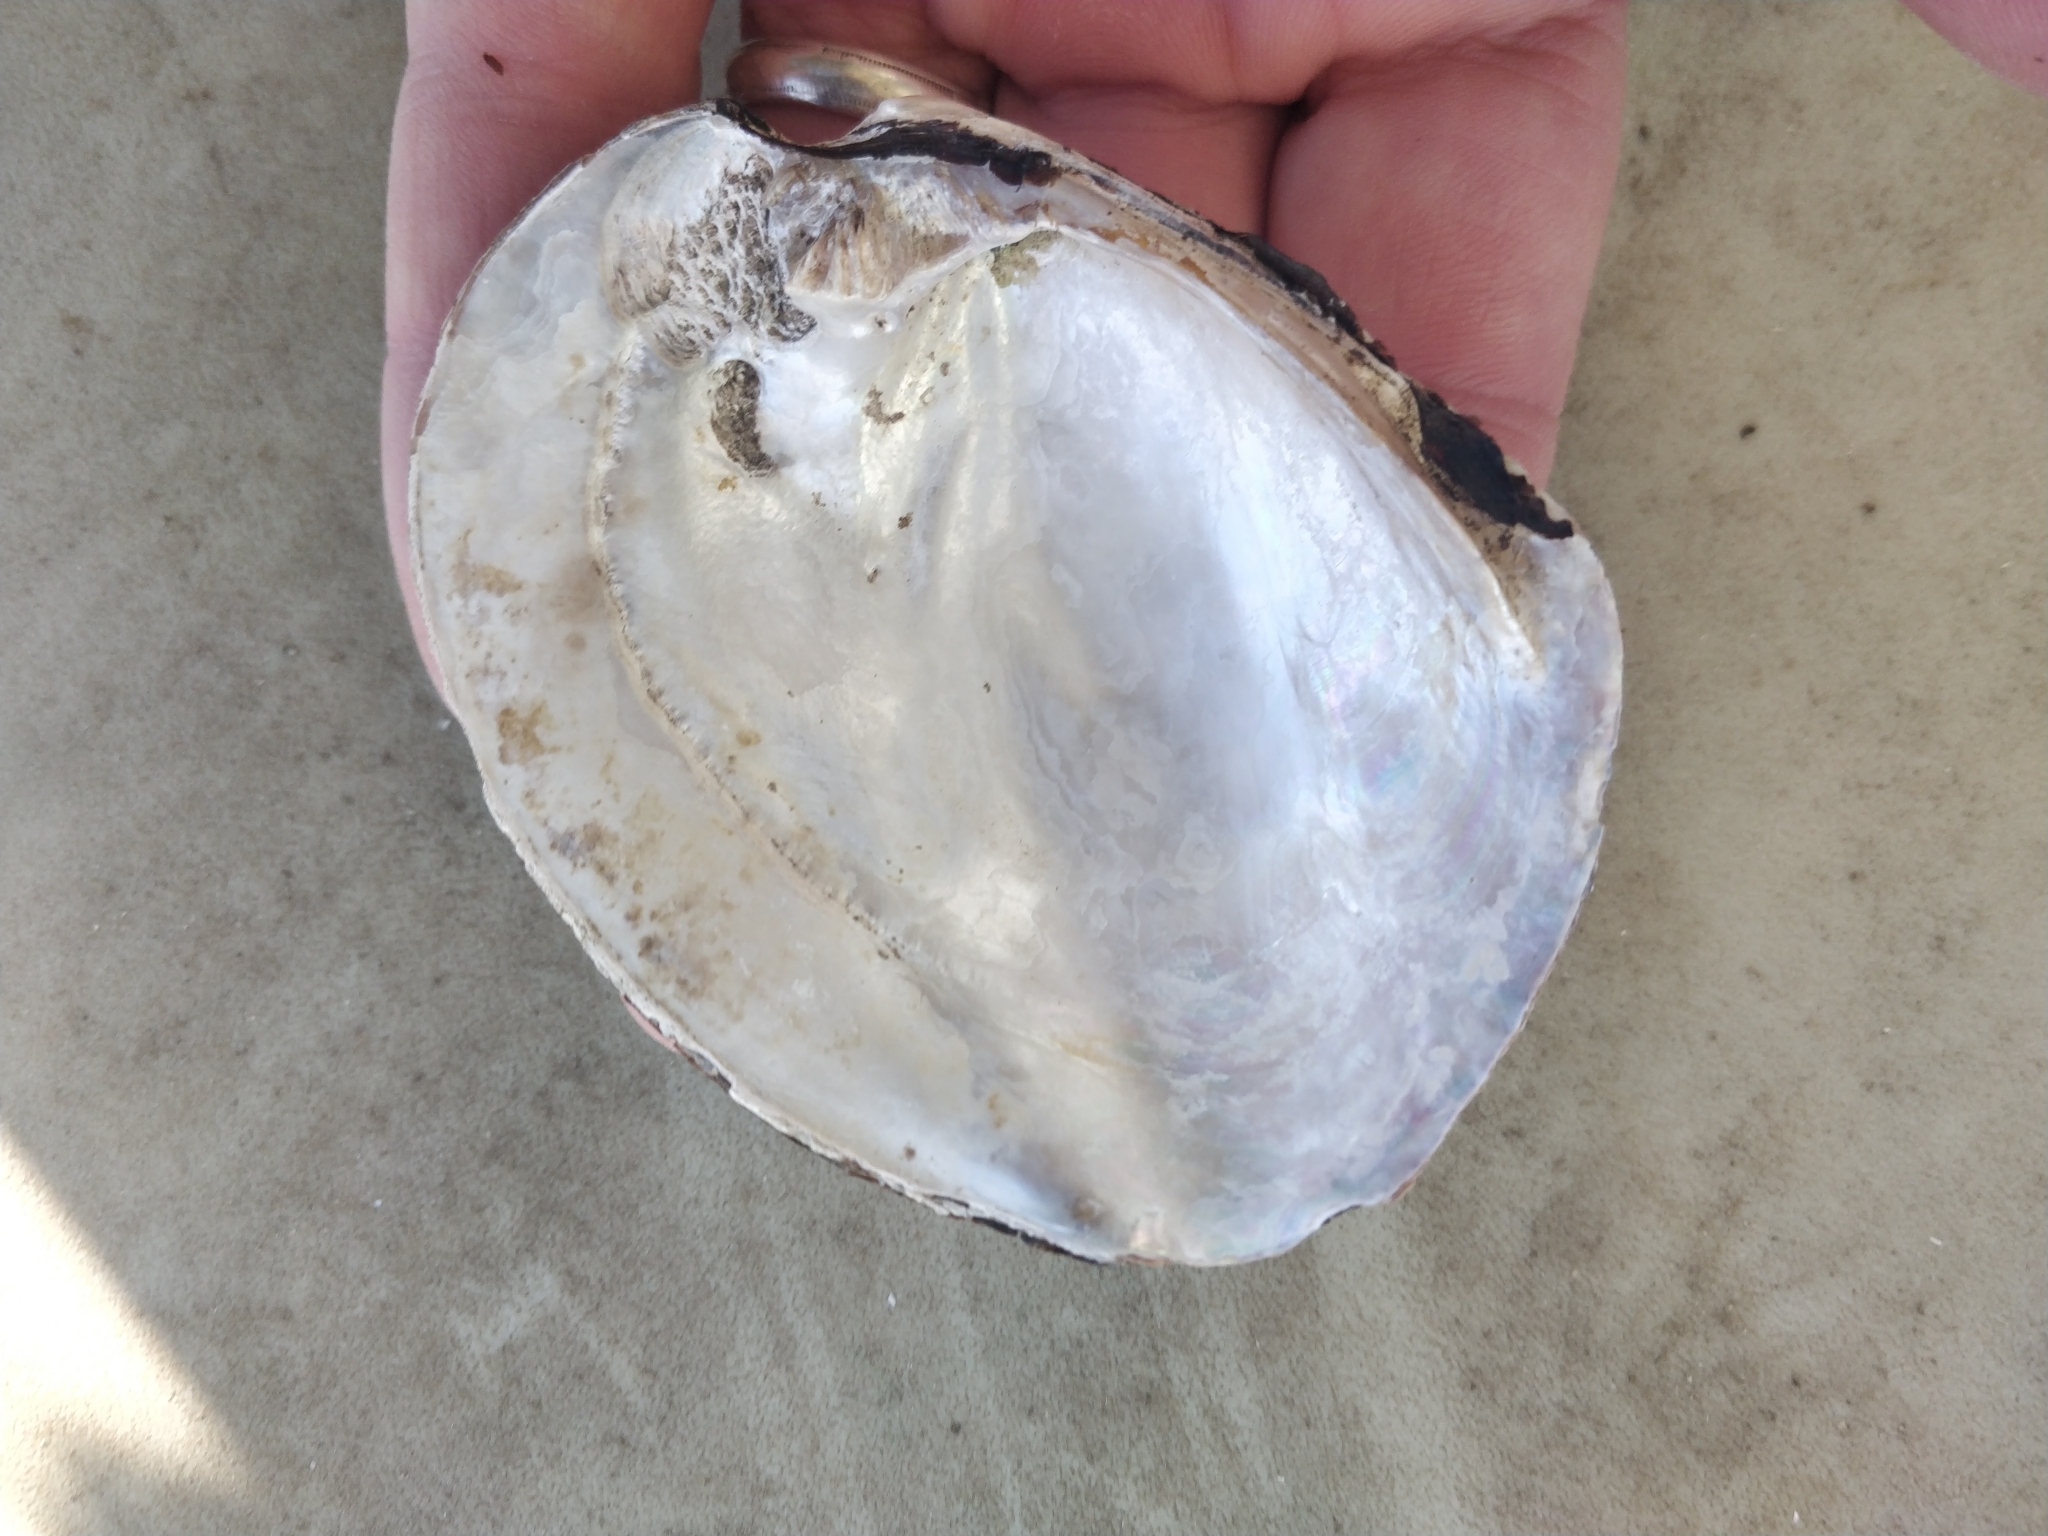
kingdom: Animalia
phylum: Mollusca
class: Bivalvia
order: Unionida
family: Unionidae
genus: Amblema
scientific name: Amblema plicata
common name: Threeridge
